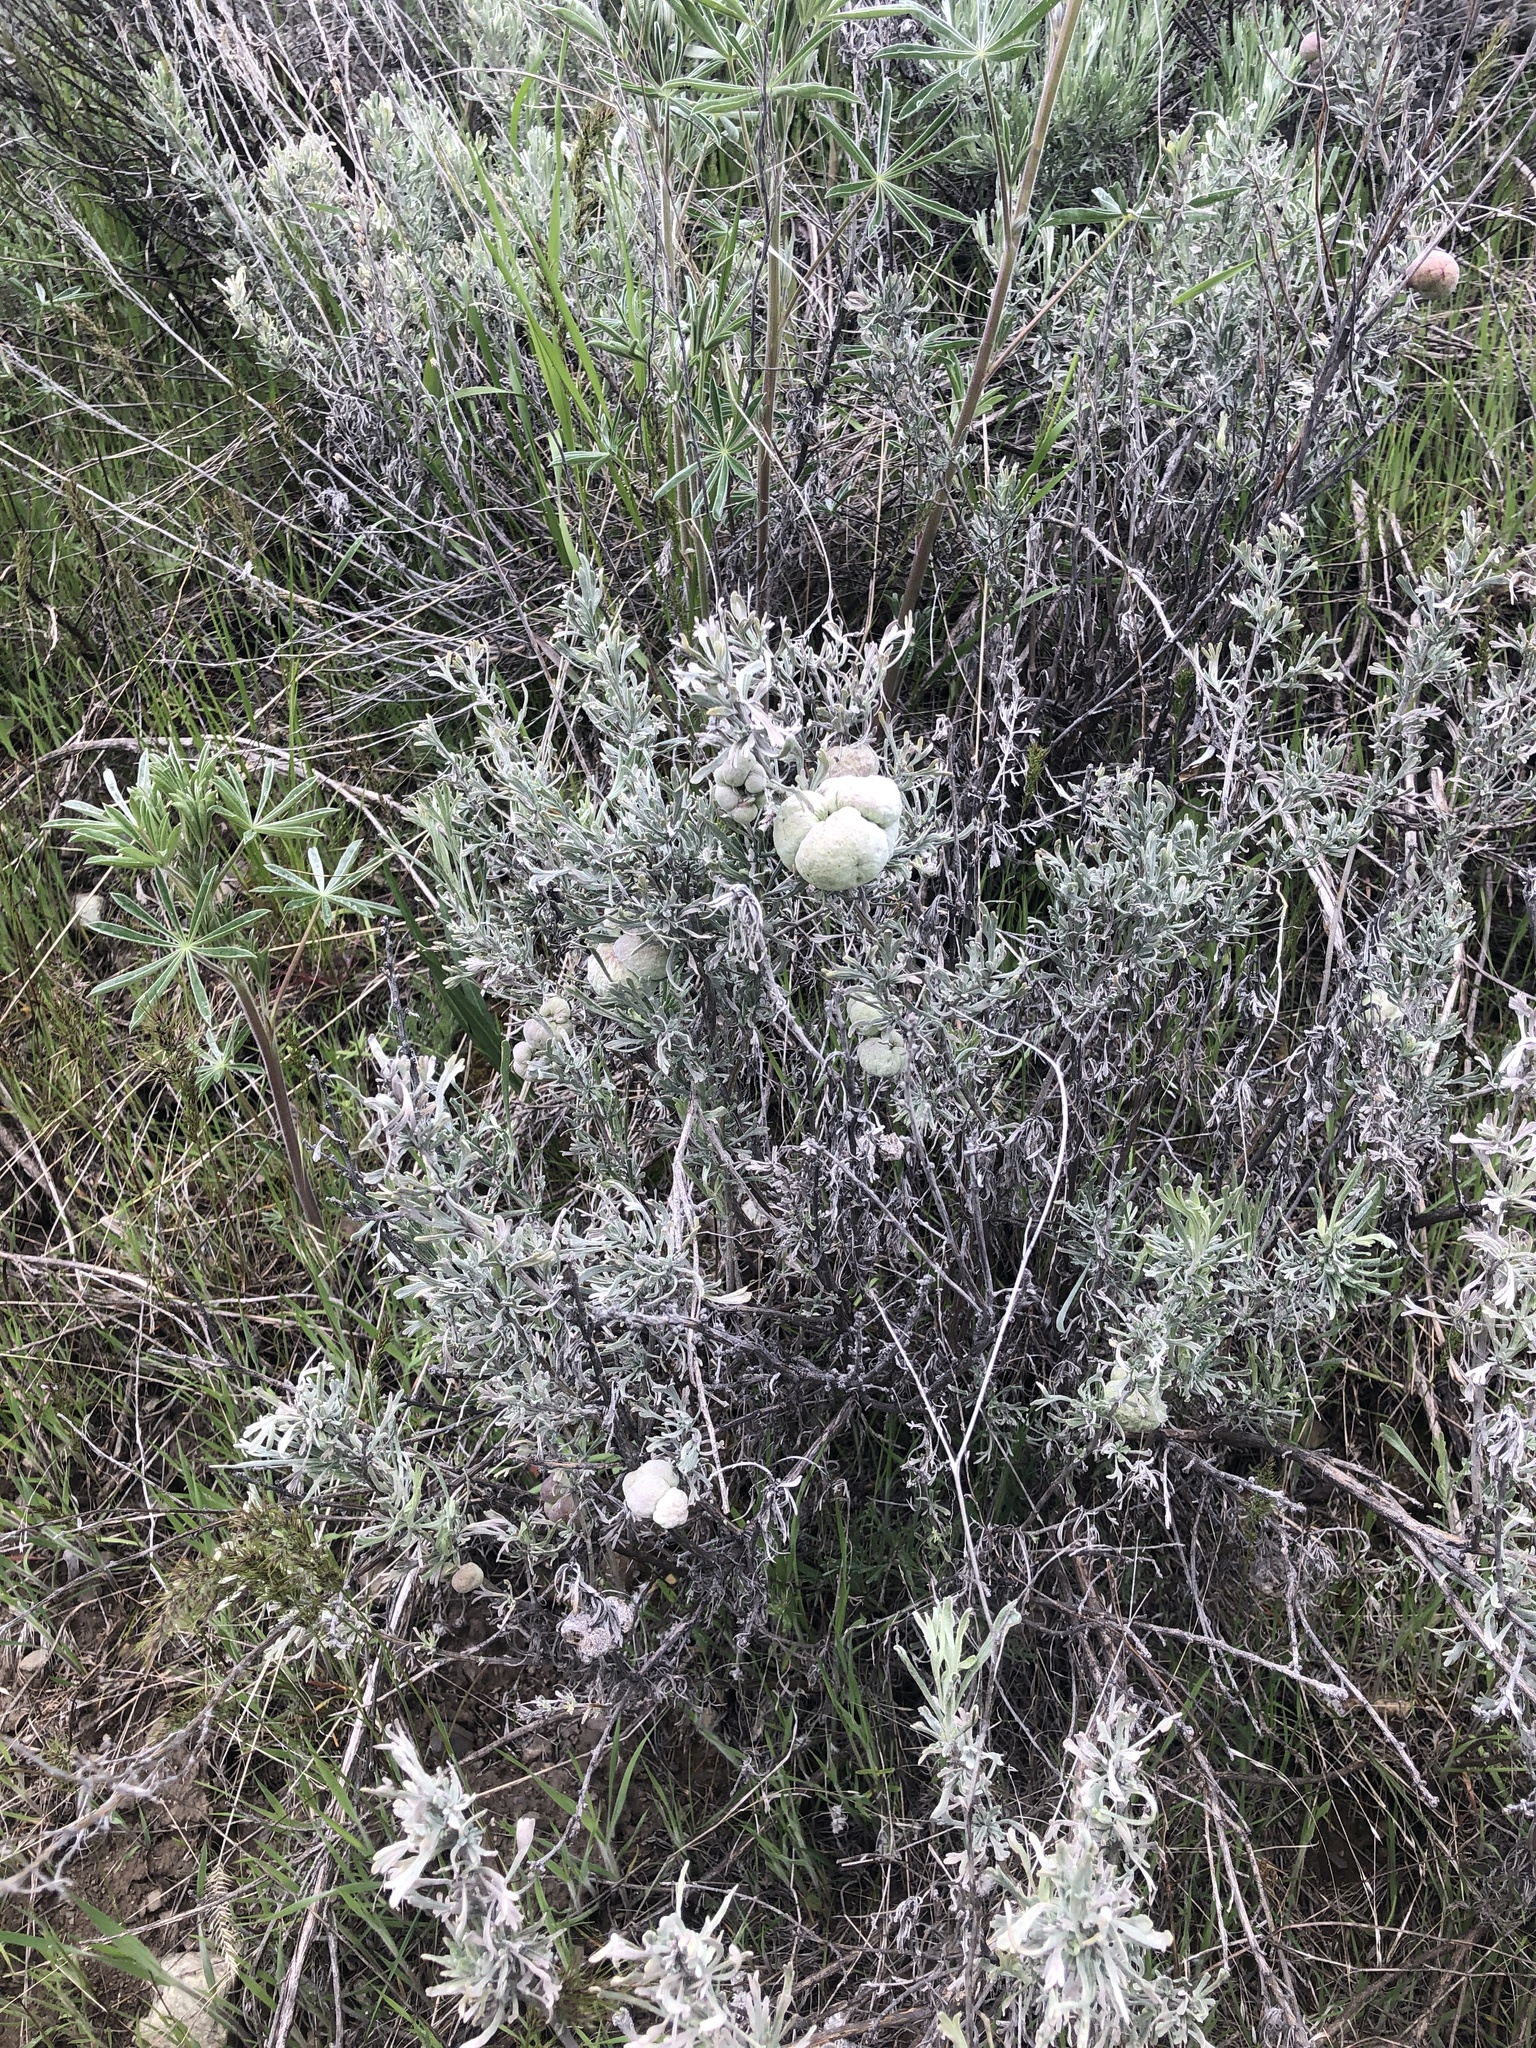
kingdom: Animalia
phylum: Arthropoda
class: Insecta
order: Diptera
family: Cecidomyiidae
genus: Rhopalomyia
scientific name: Rhopalomyia pomum
